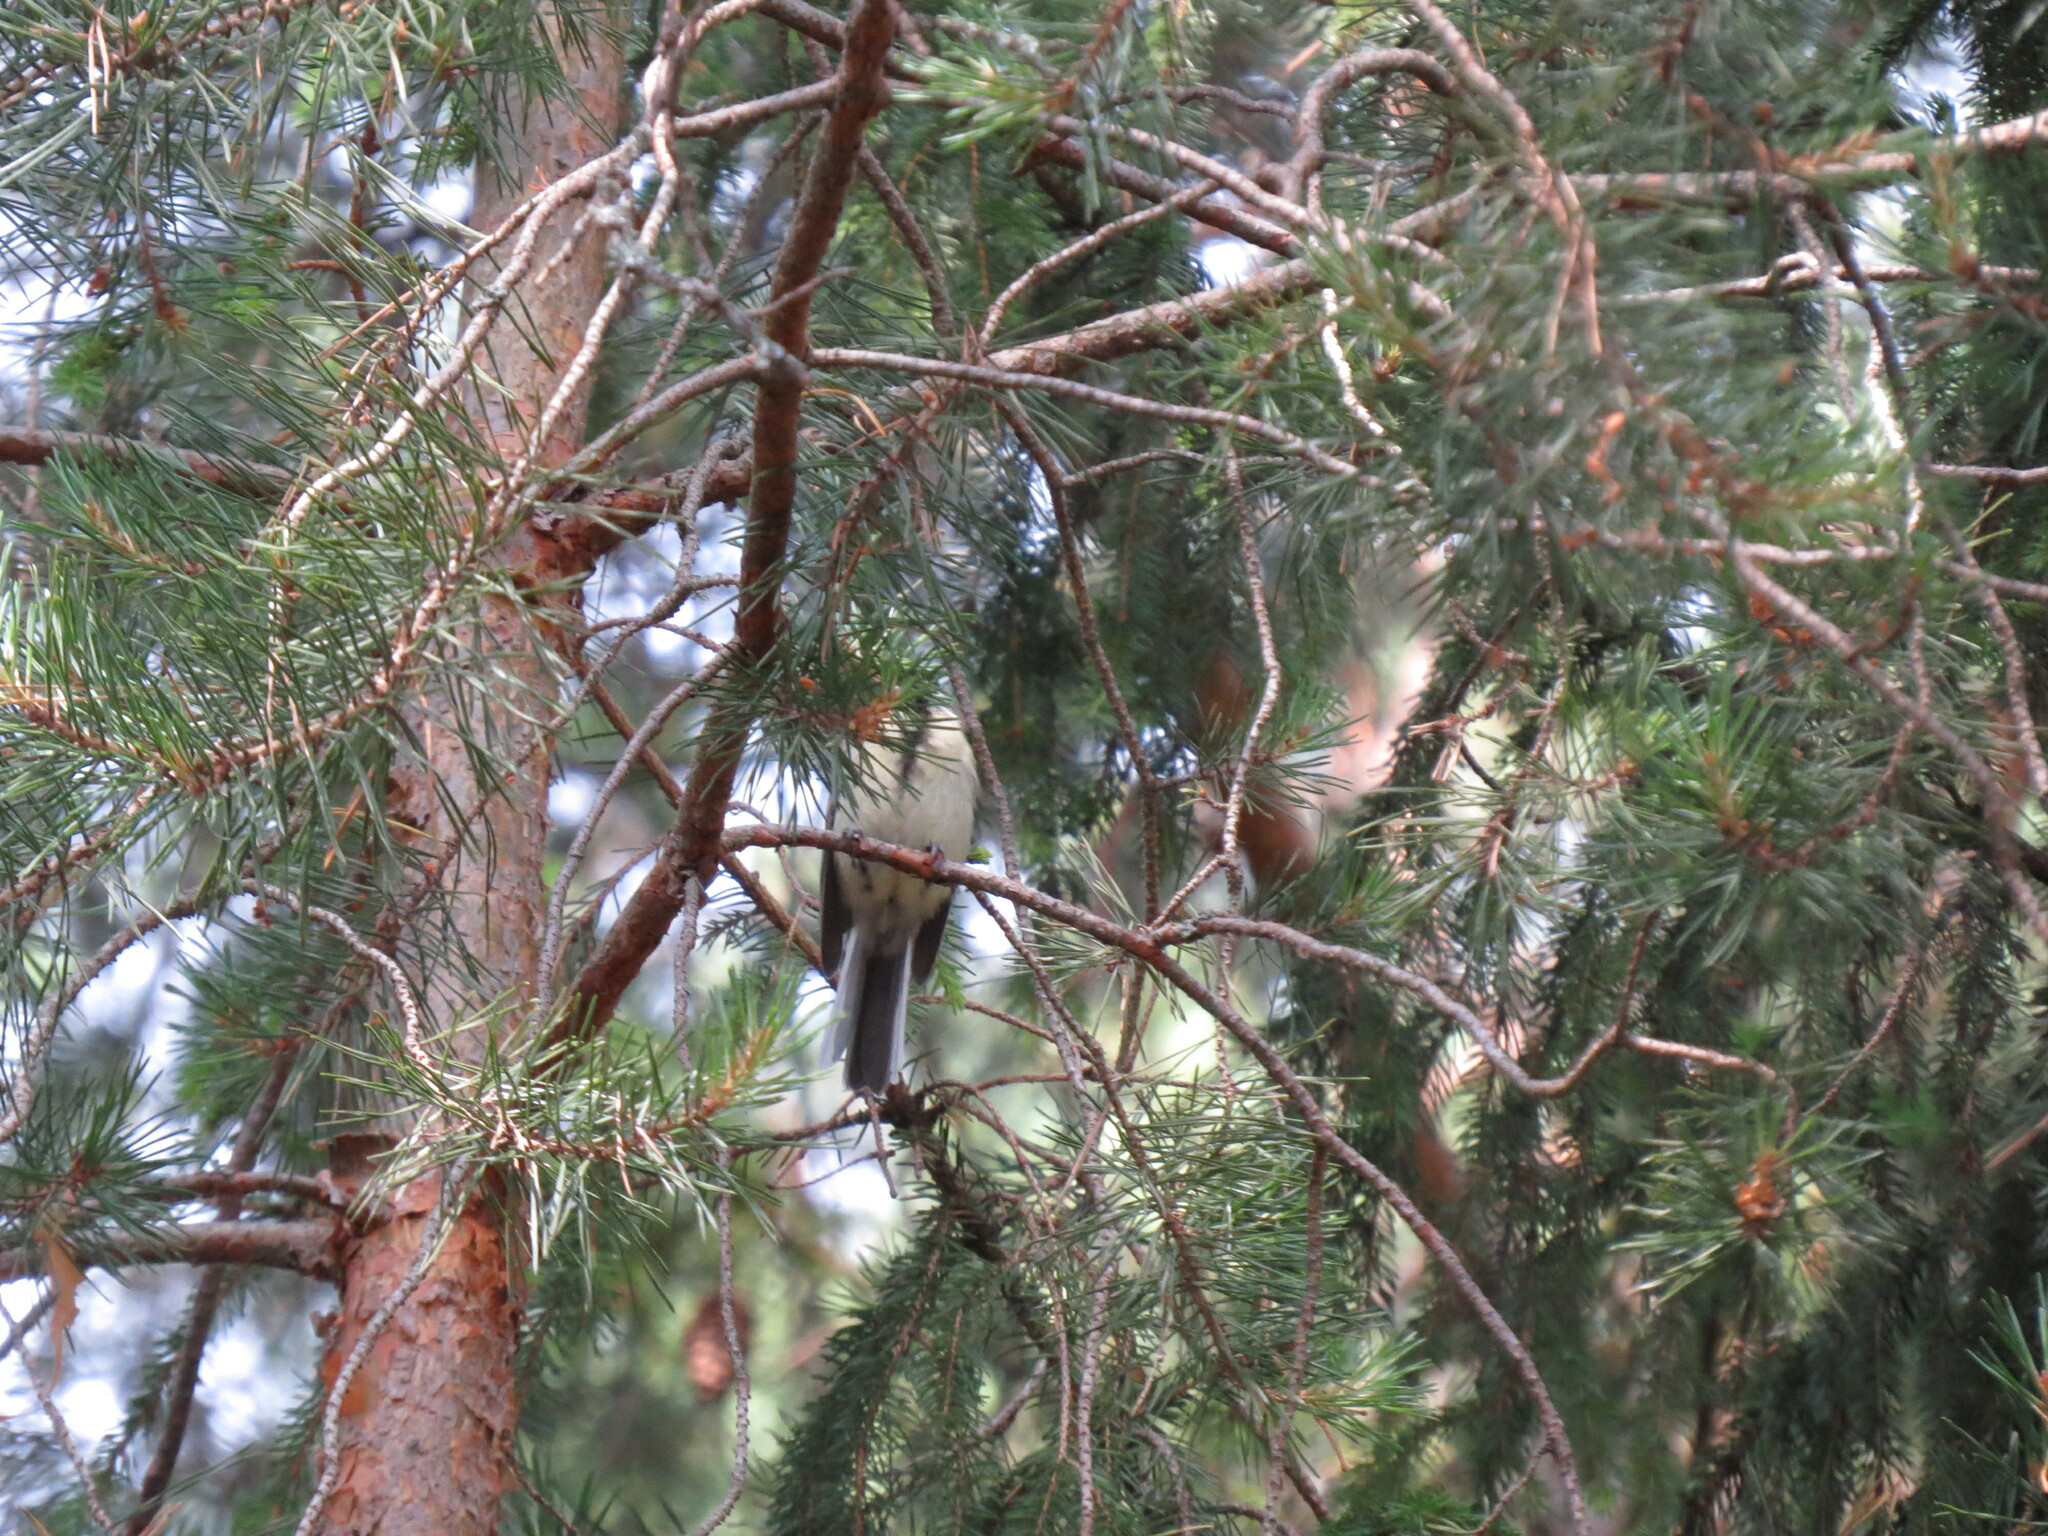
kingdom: Animalia
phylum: Chordata
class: Aves
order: Passeriformes
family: Paridae
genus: Parus
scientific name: Parus major
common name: Great tit
